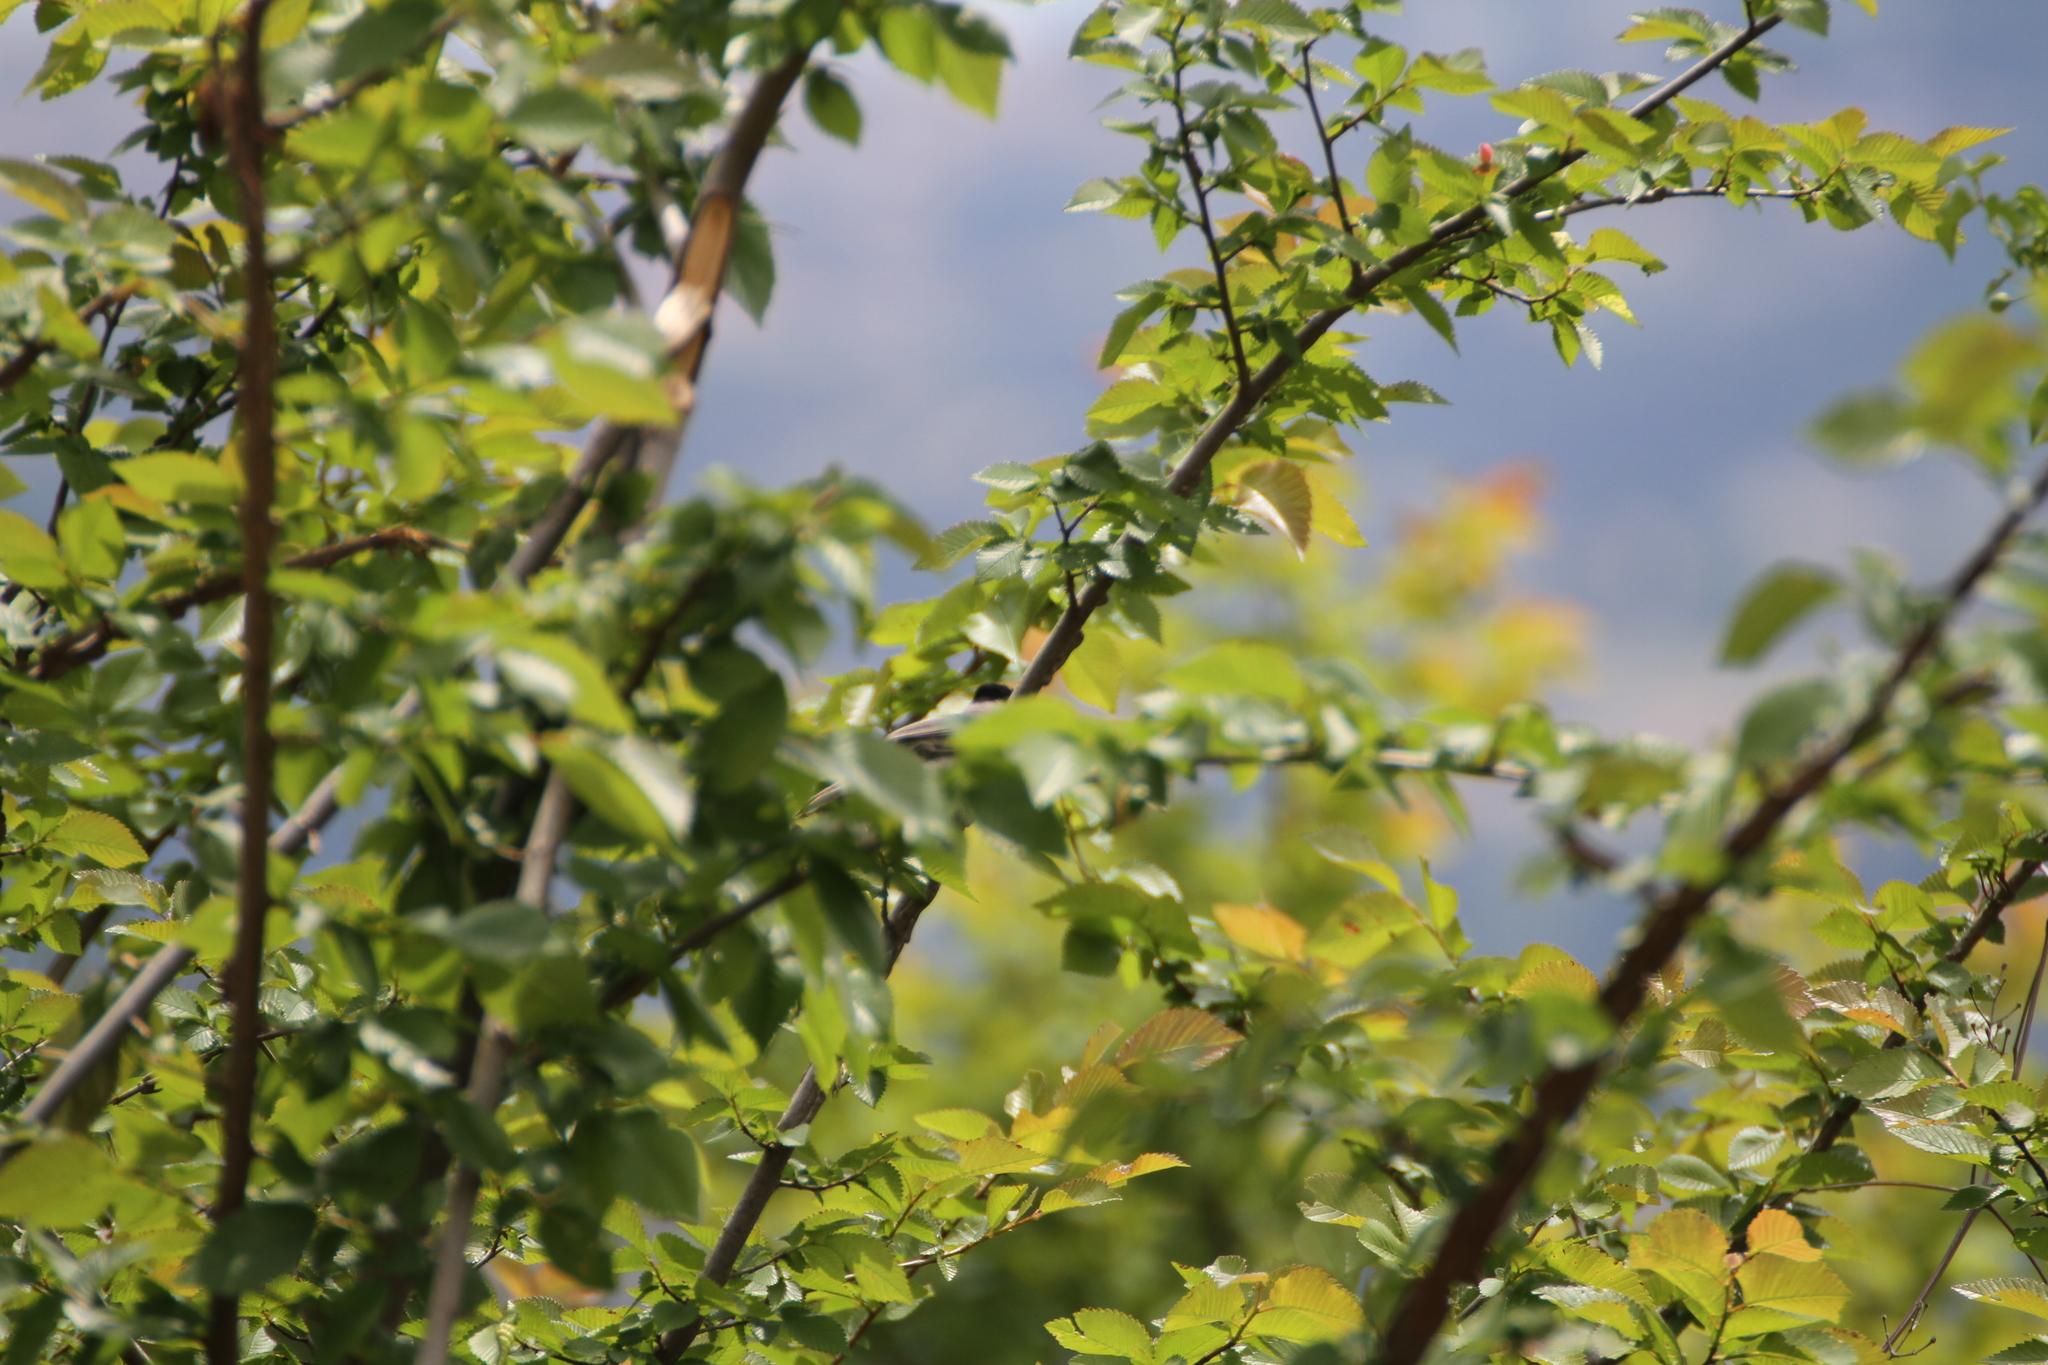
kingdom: Animalia
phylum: Chordata
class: Aves
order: Passeriformes
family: Sylviidae
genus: Sylvia
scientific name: Sylvia atricapilla
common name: Eurasian blackcap
